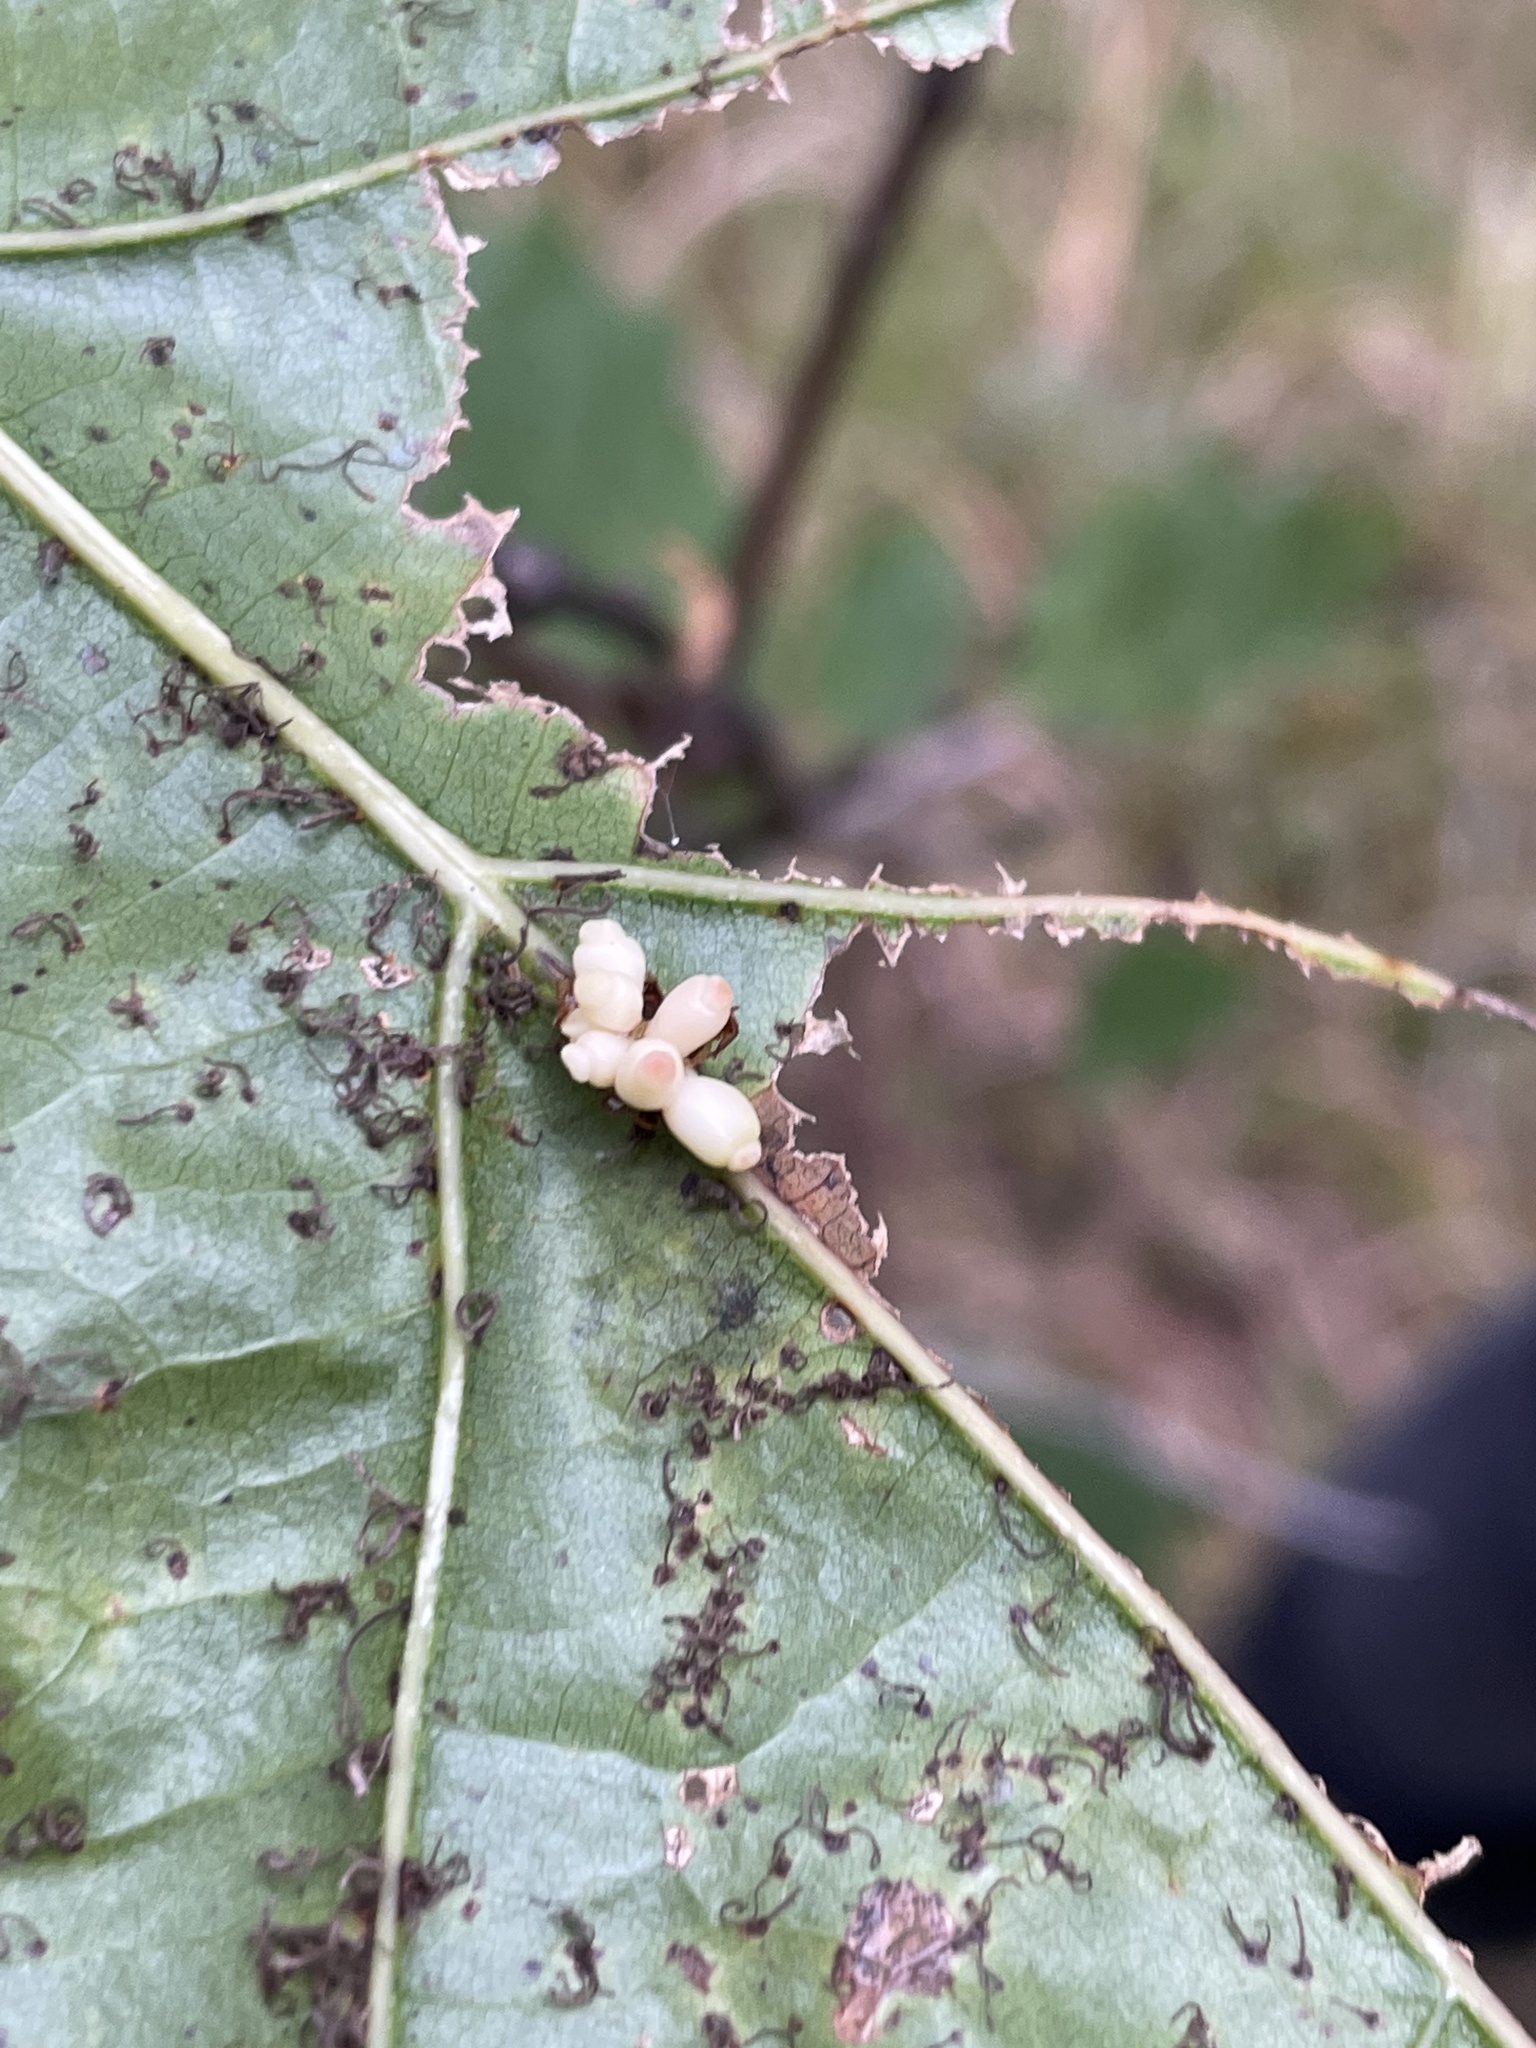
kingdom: Animalia
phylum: Arthropoda
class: Insecta
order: Hymenoptera
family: Cynipidae
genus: Kokkocynips
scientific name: Kokkocynips decidua
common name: Oak wheat gall
